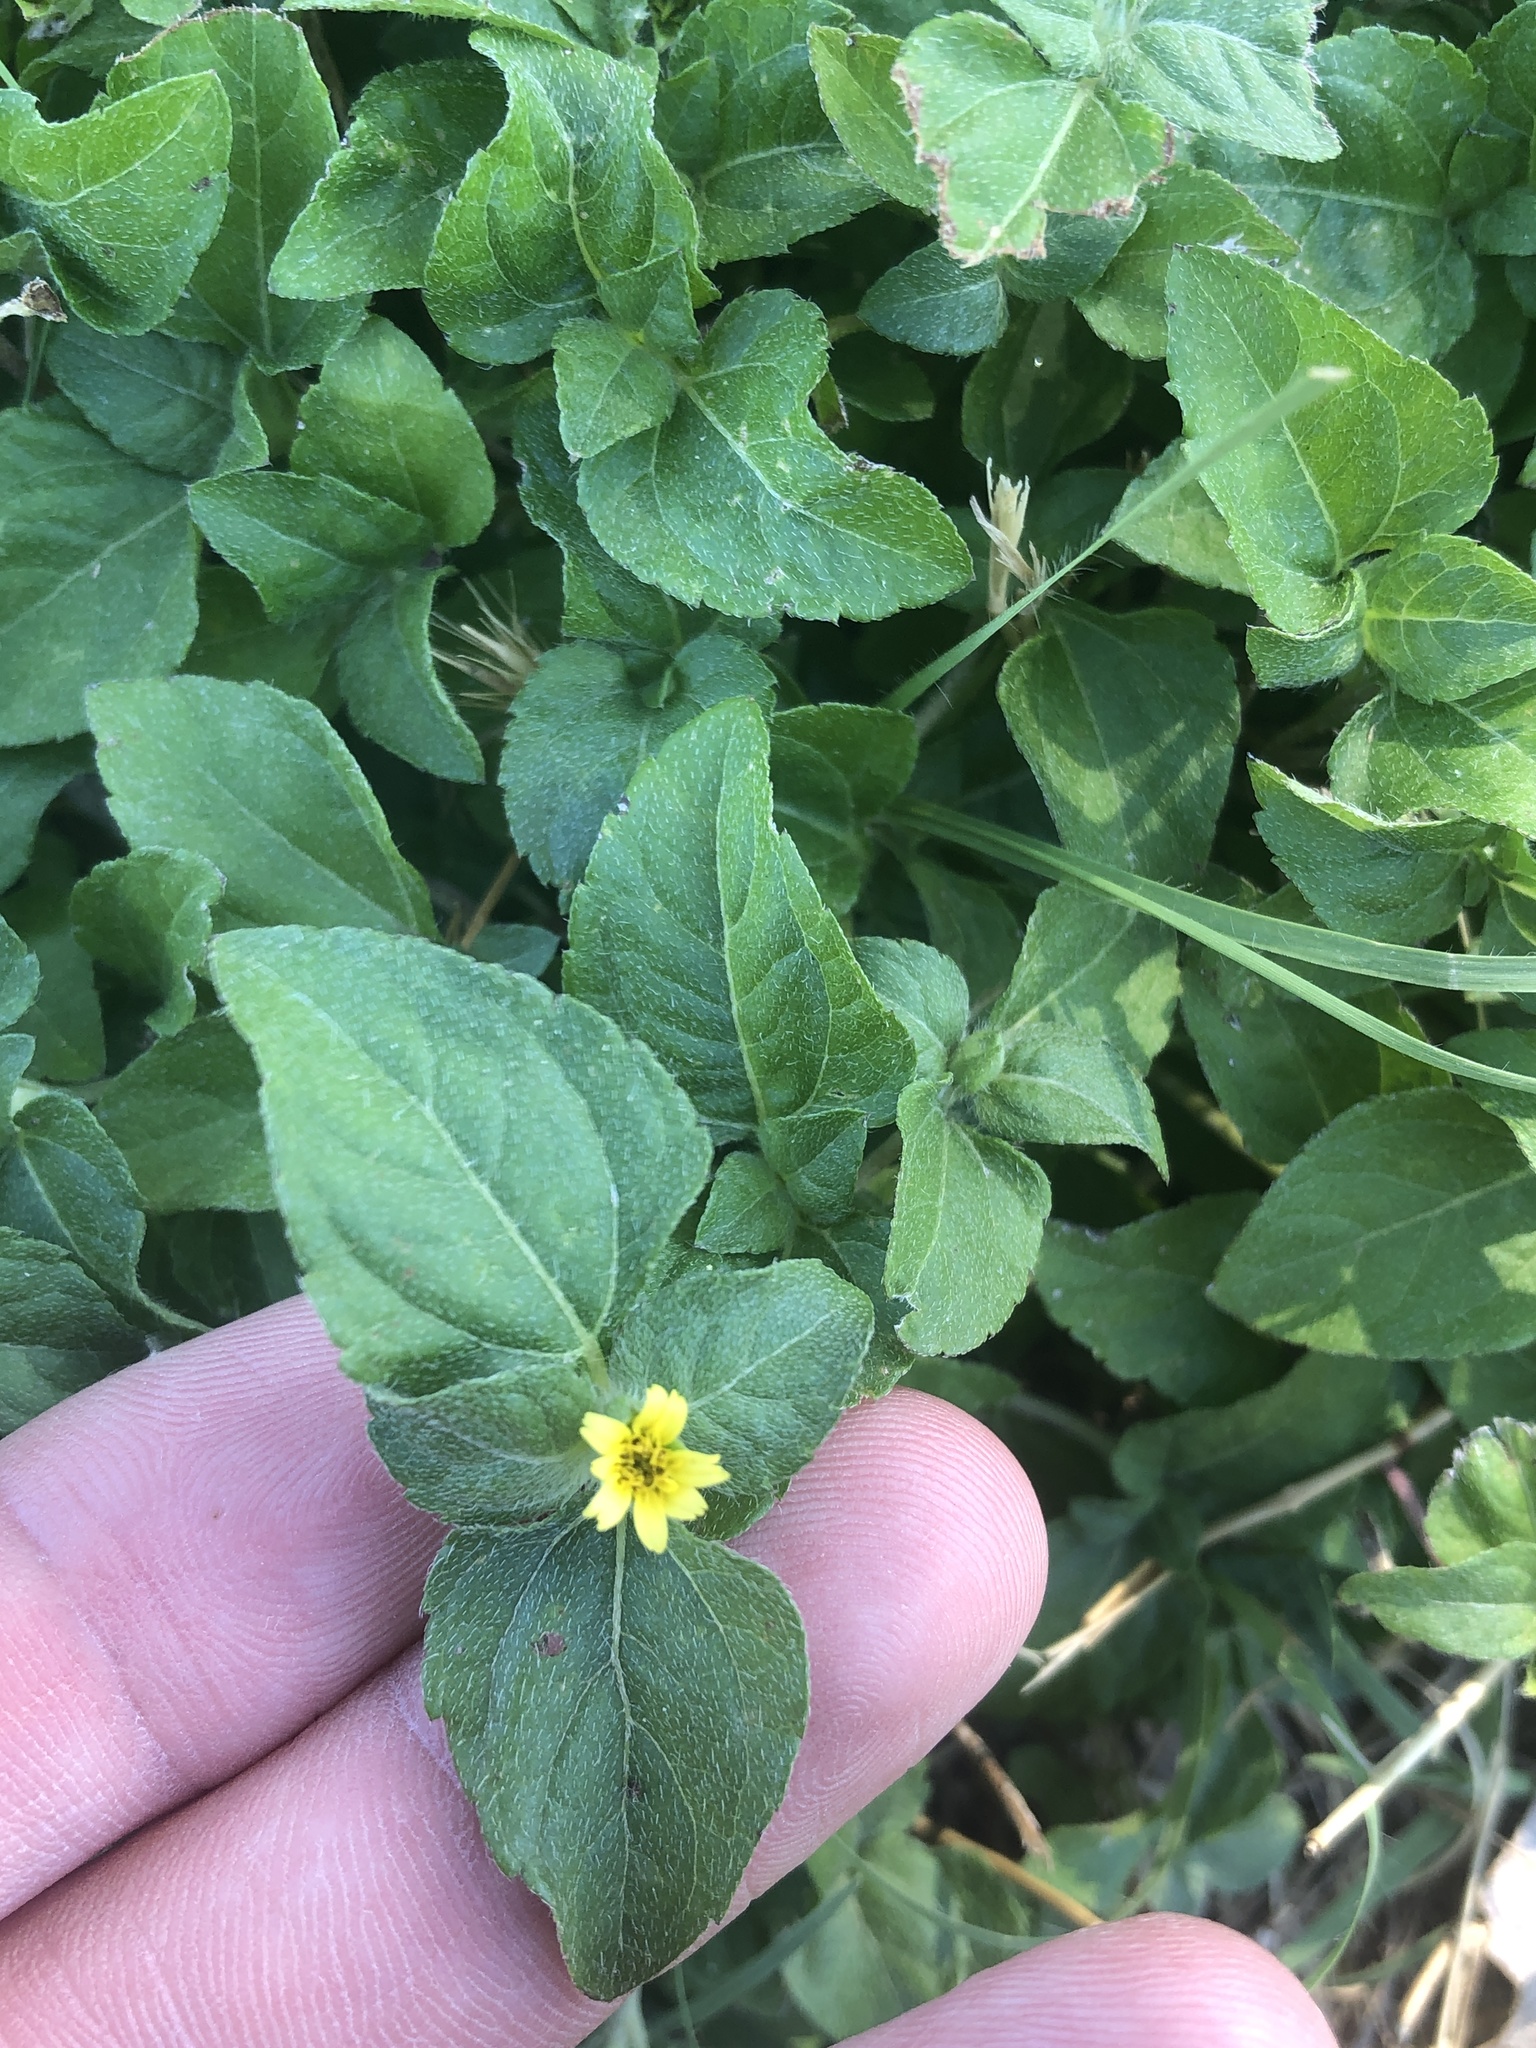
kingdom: Plantae
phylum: Tracheophyta
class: Magnoliopsida
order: Asterales
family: Asteraceae
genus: Calyptocarpus
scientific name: Calyptocarpus vialis
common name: Straggler daisy
